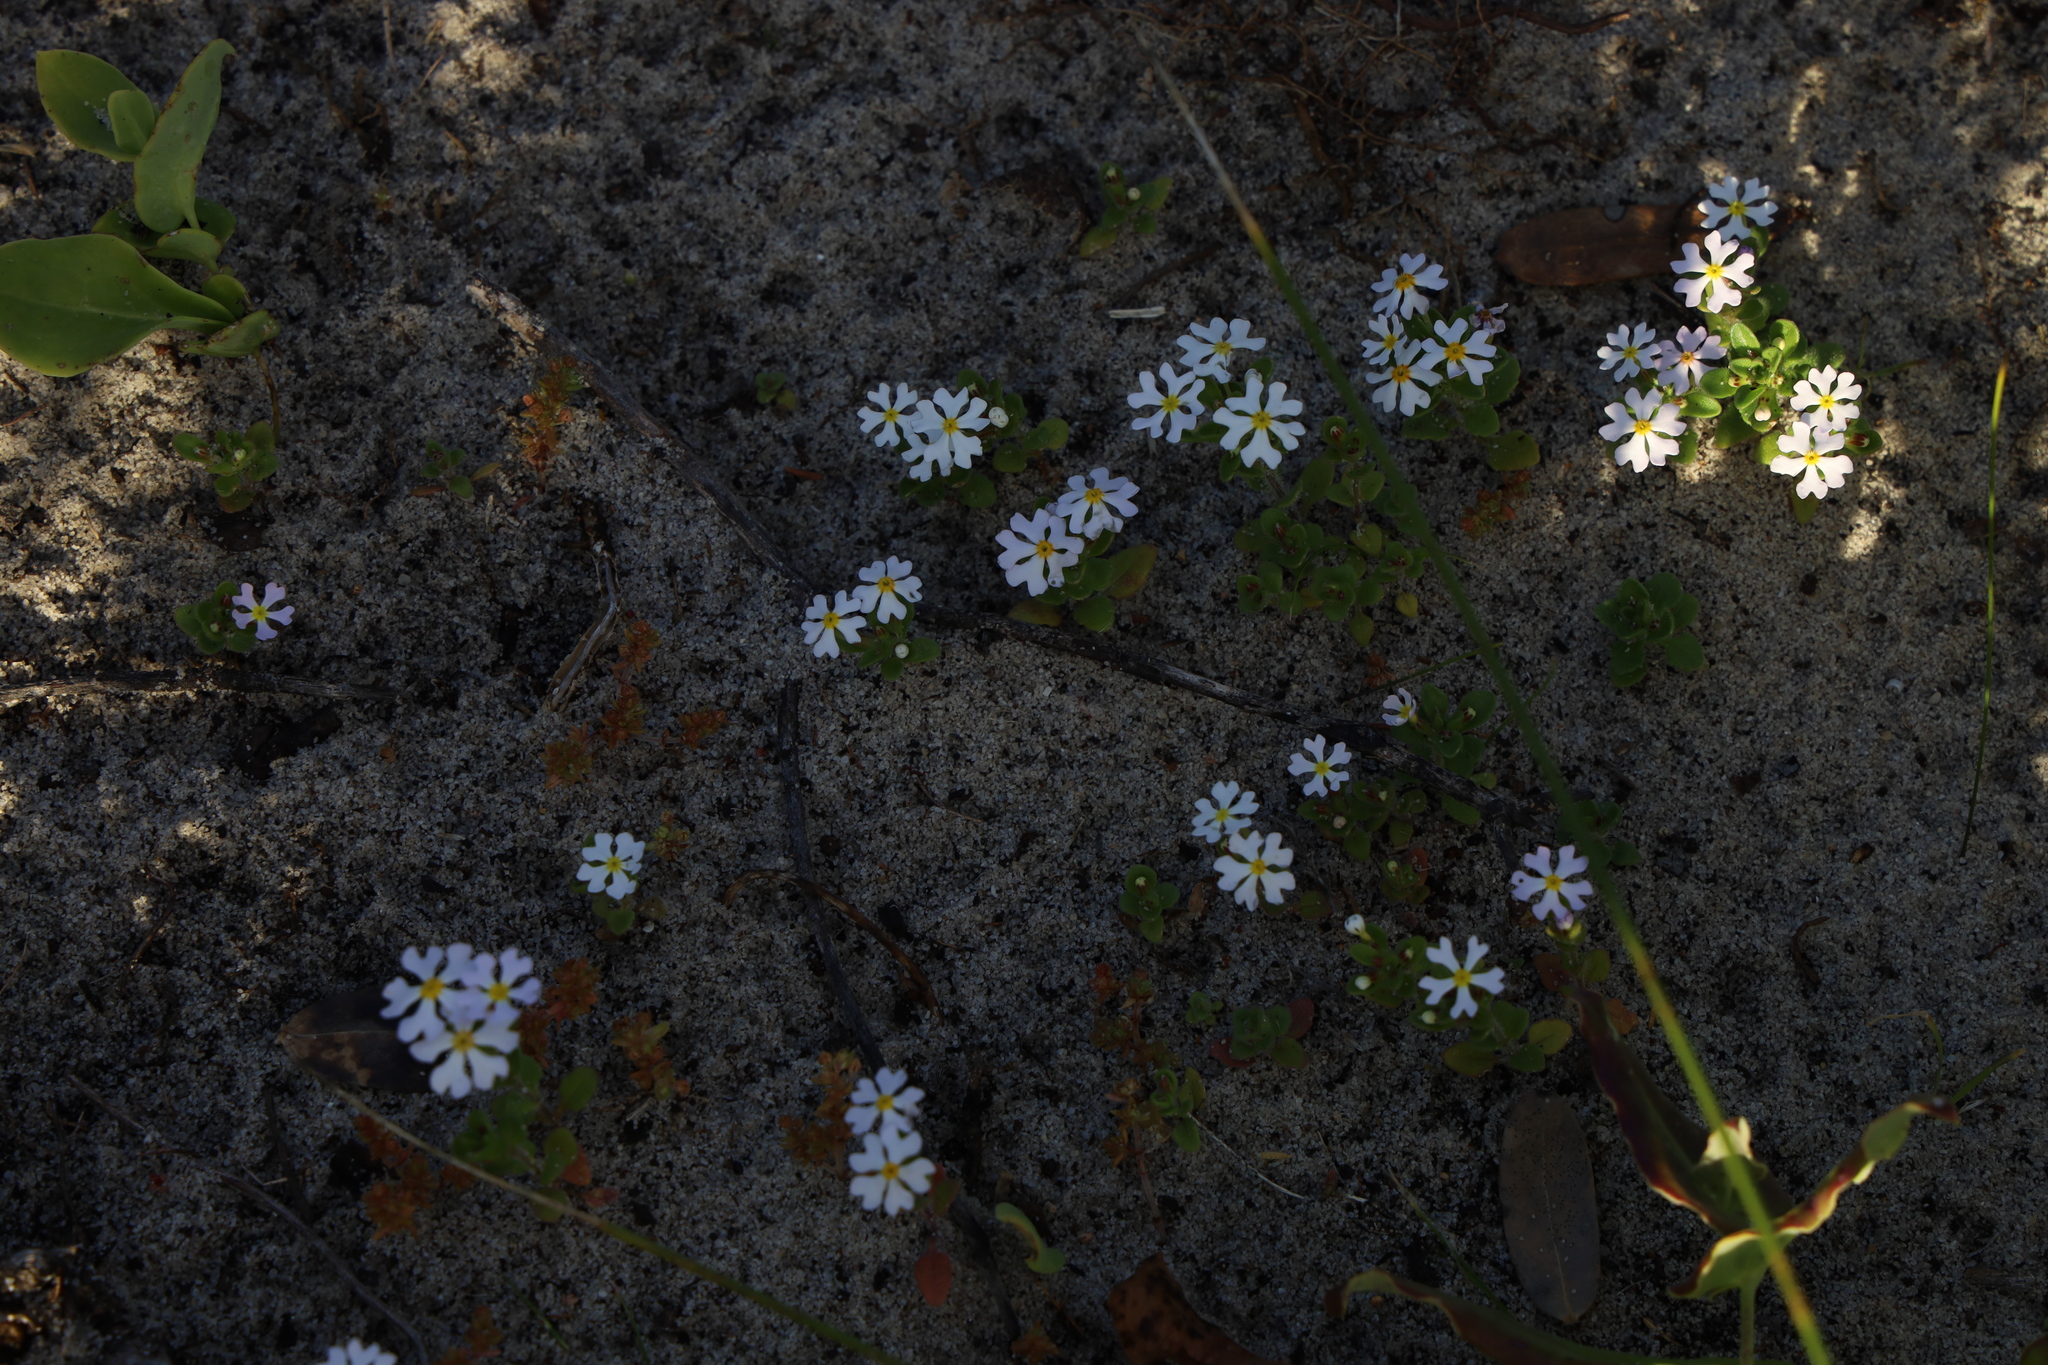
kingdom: Plantae
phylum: Tracheophyta
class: Magnoliopsida
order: Lamiales
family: Scrophulariaceae
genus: Zaluzianskya
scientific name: Zaluzianskya villosa
